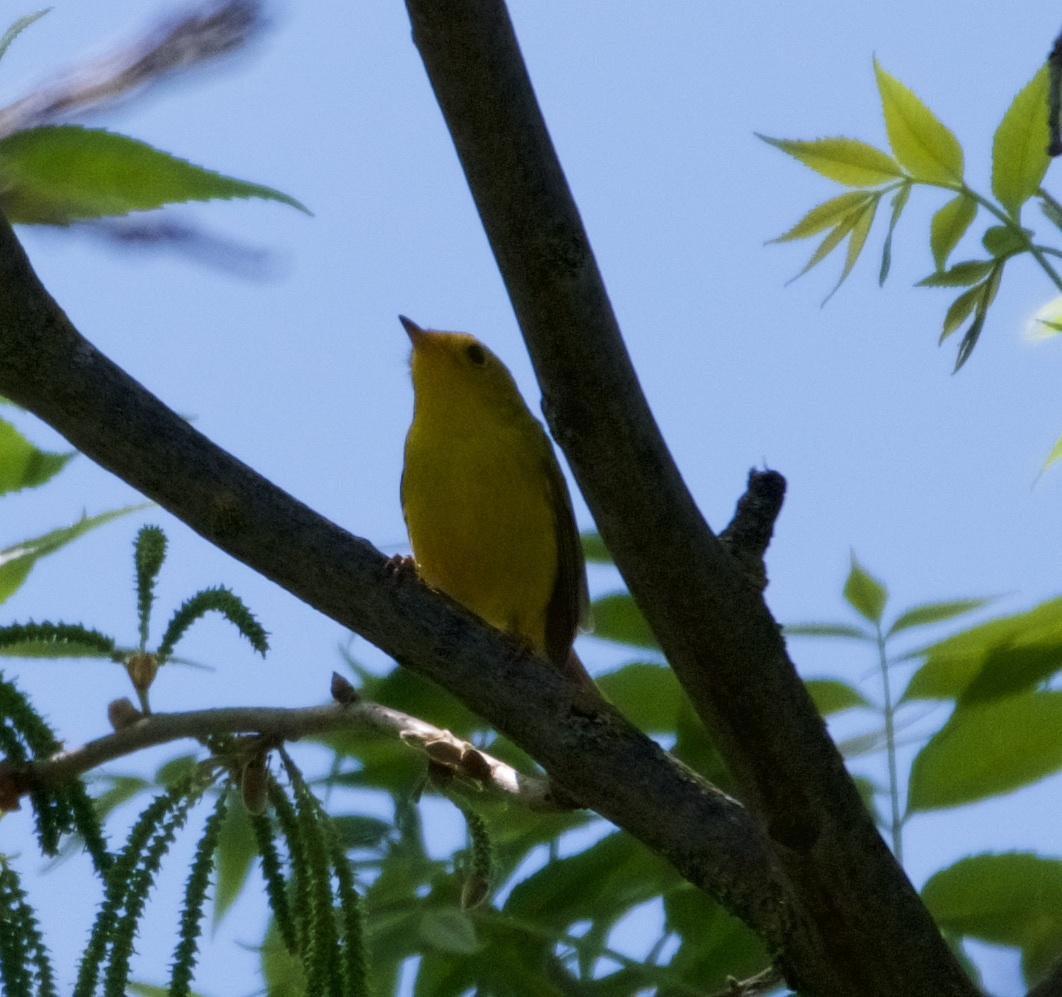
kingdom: Animalia
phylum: Chordata
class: Aves
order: Passeriformes
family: Parulidae
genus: Cardellina
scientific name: Cardellina pusilla
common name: Wilson's warbler
